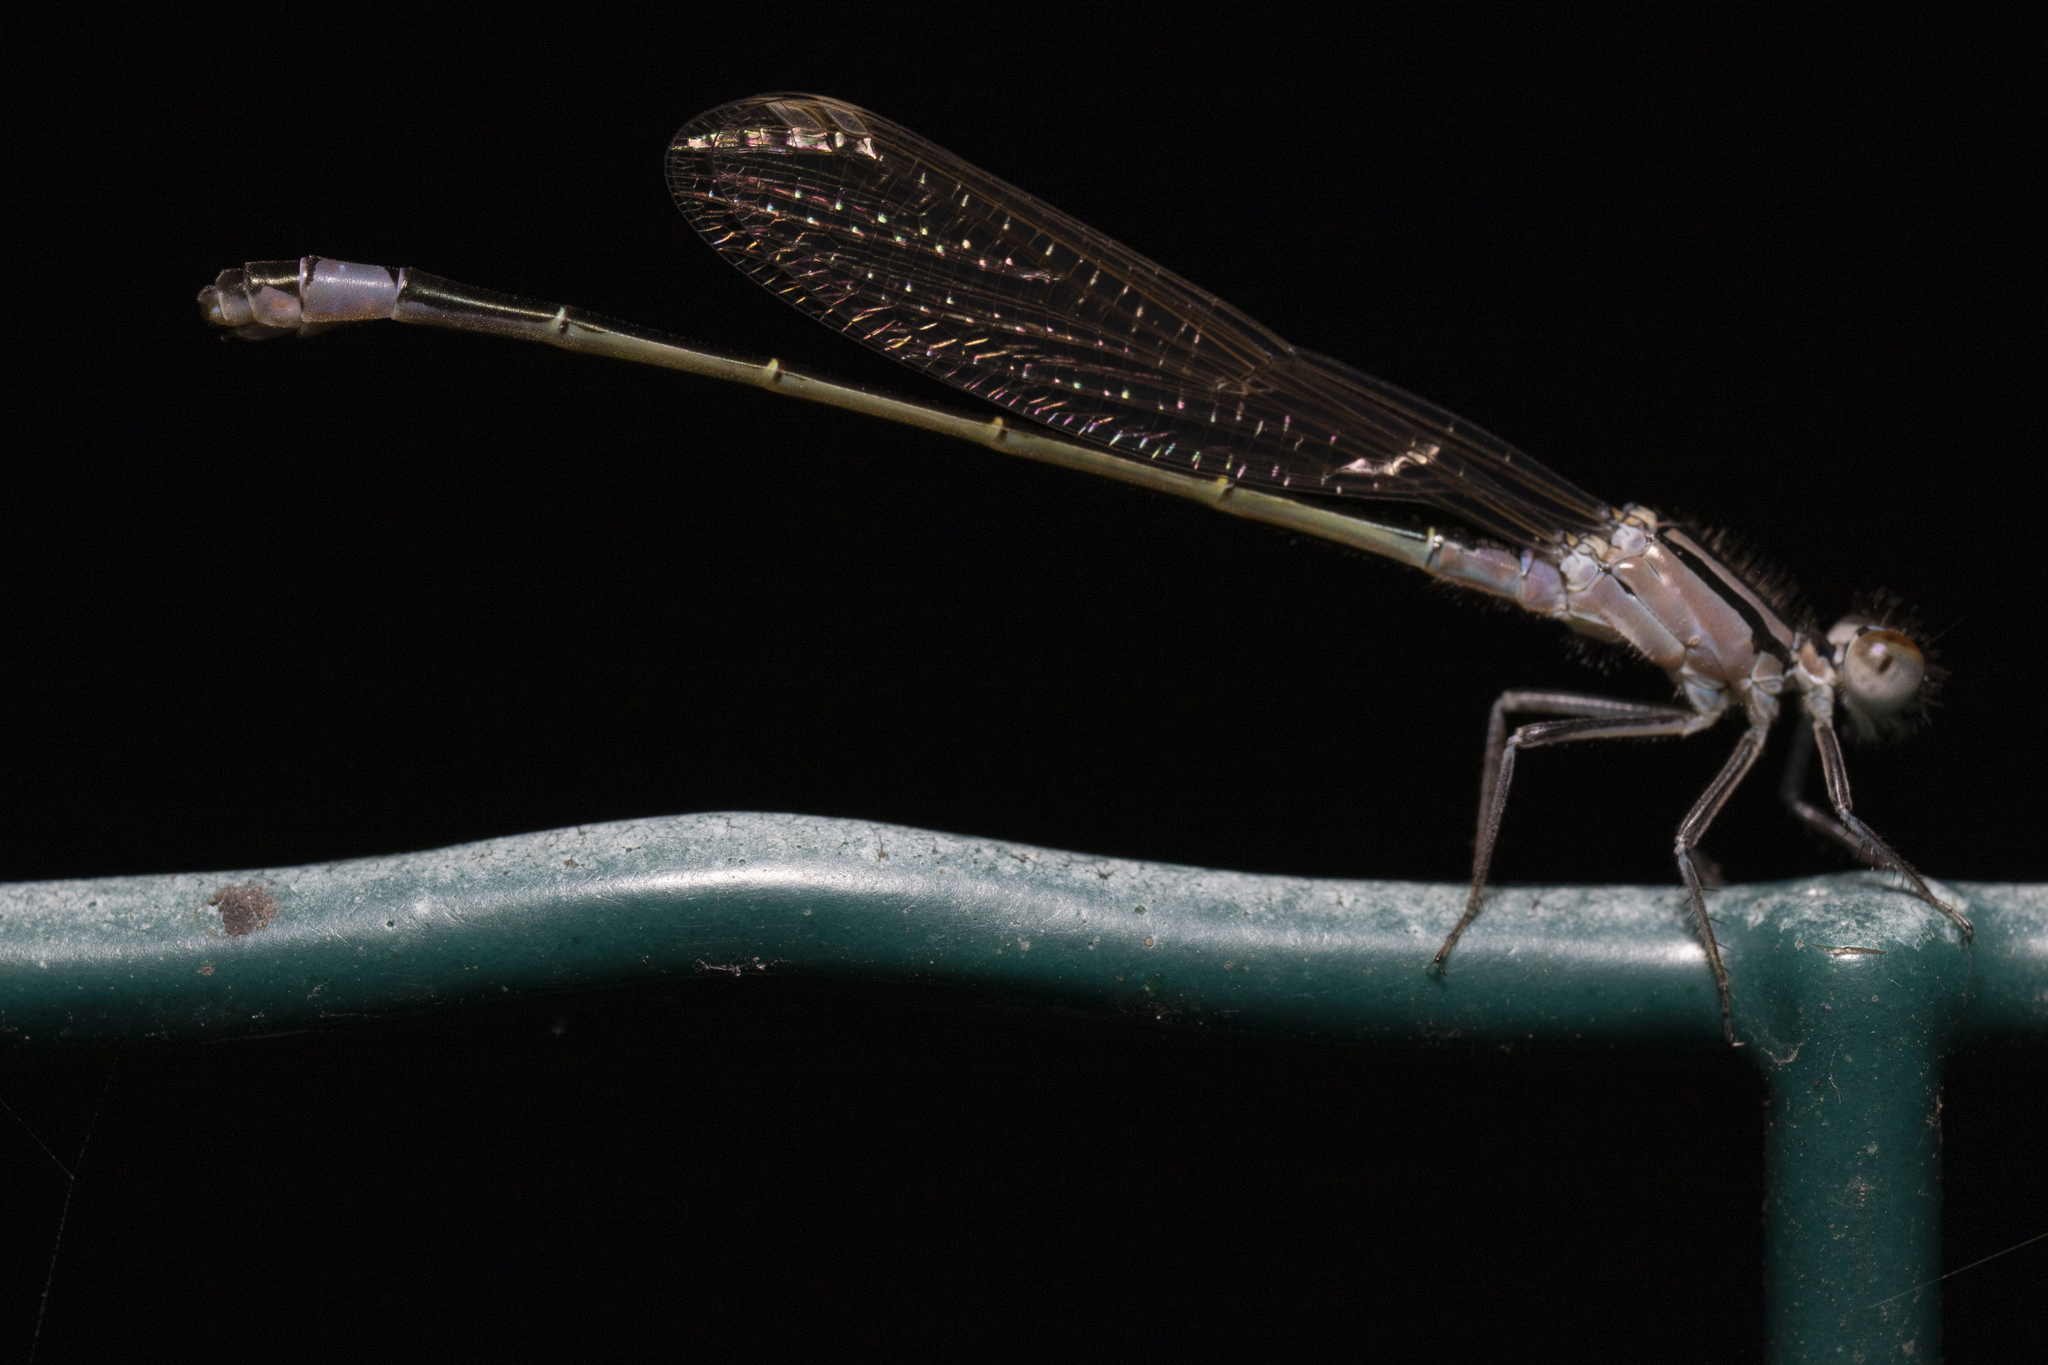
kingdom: Animalia
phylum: Arthropoda
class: Insecta
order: Odonata
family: Coenagrionidae
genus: Ischnura
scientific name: Ischnura elegans
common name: Blue-tailed damselfly
